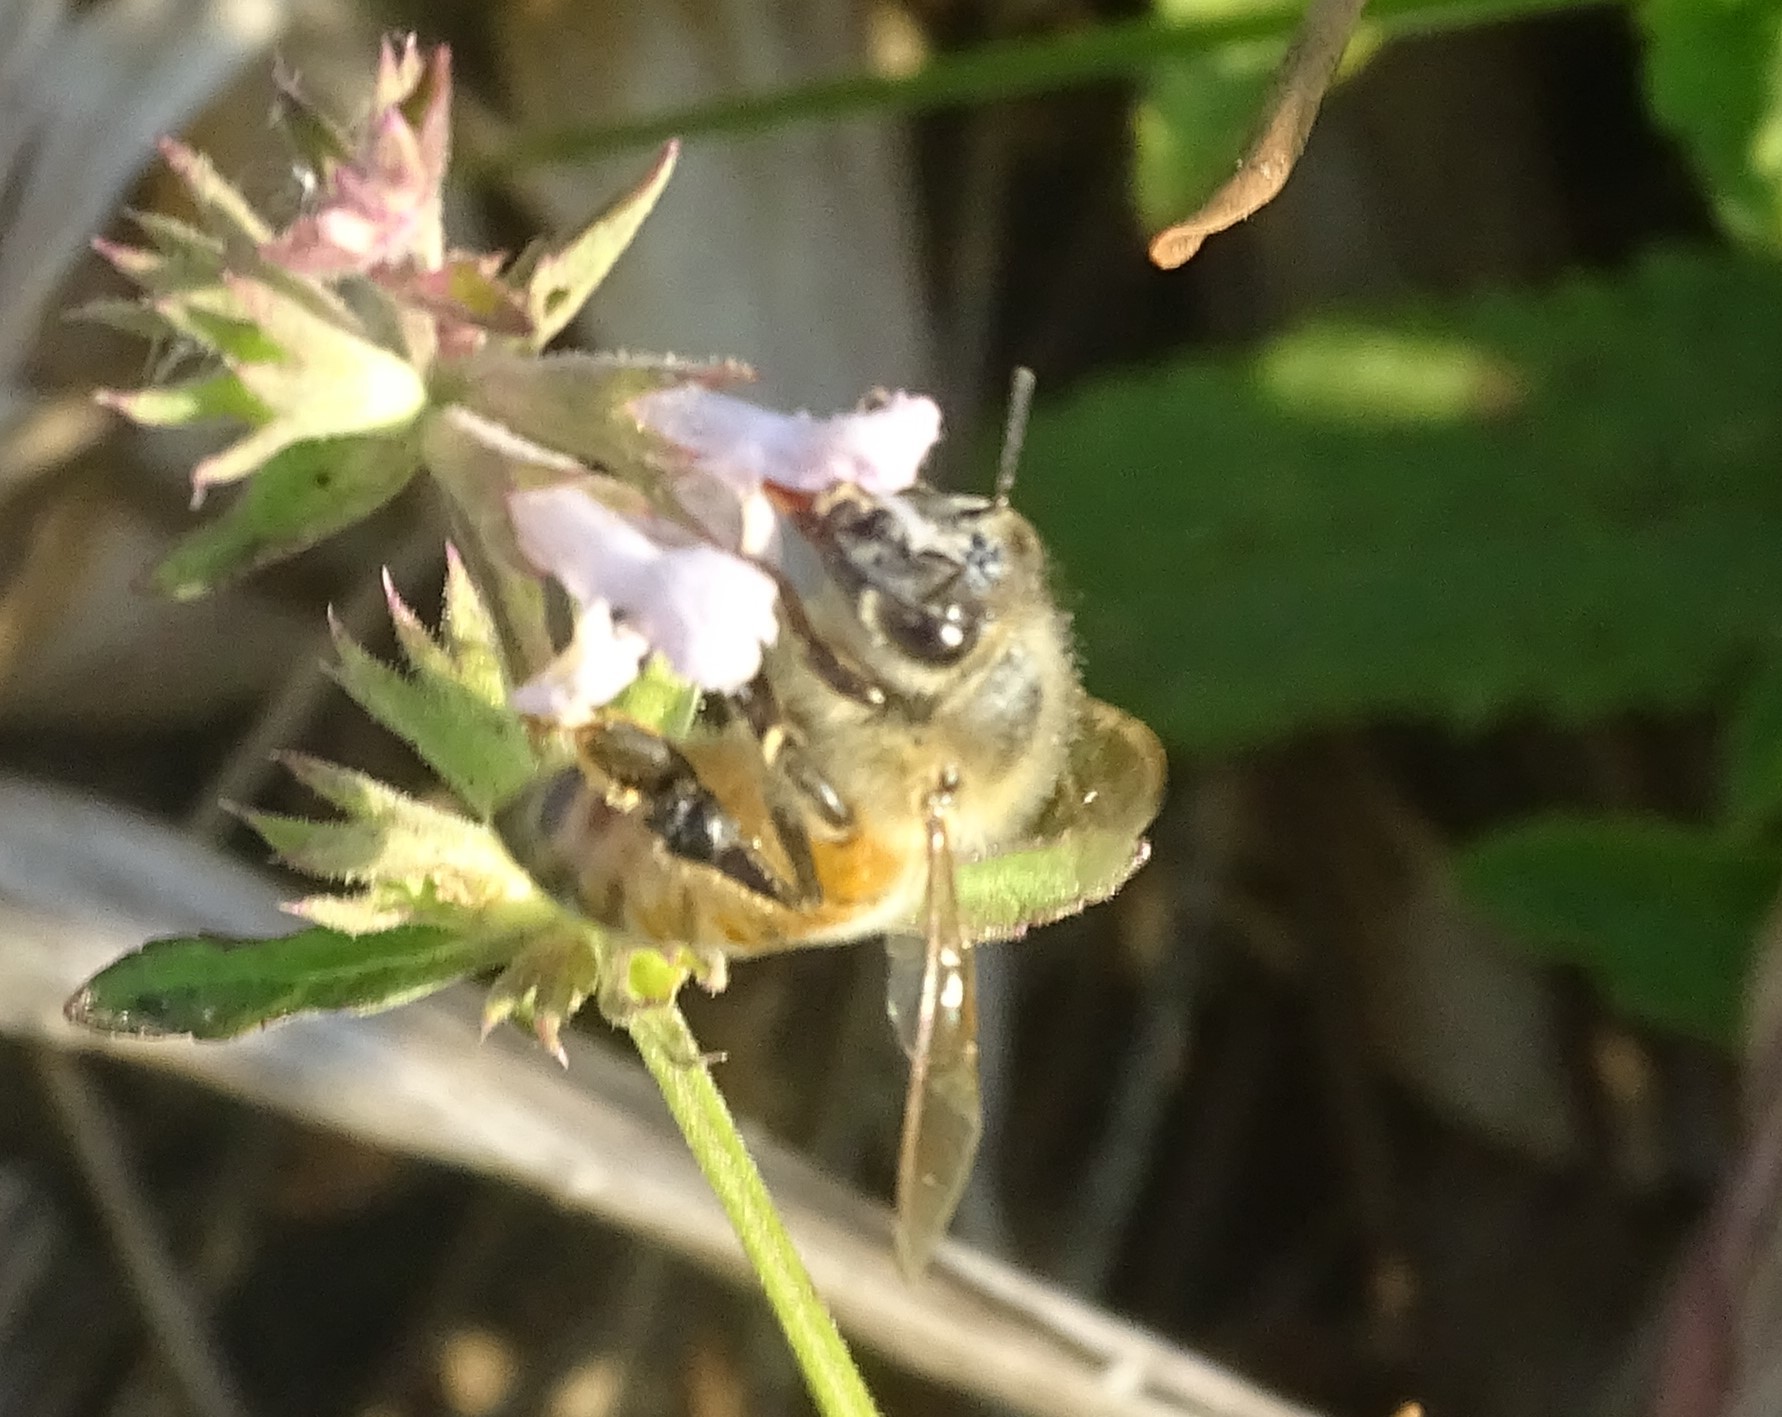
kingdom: Animalia
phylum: Arthropoda
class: Insecta
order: Hymenoptera
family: Apidae
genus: Apis
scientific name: Apis mellifera
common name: Honey bee
